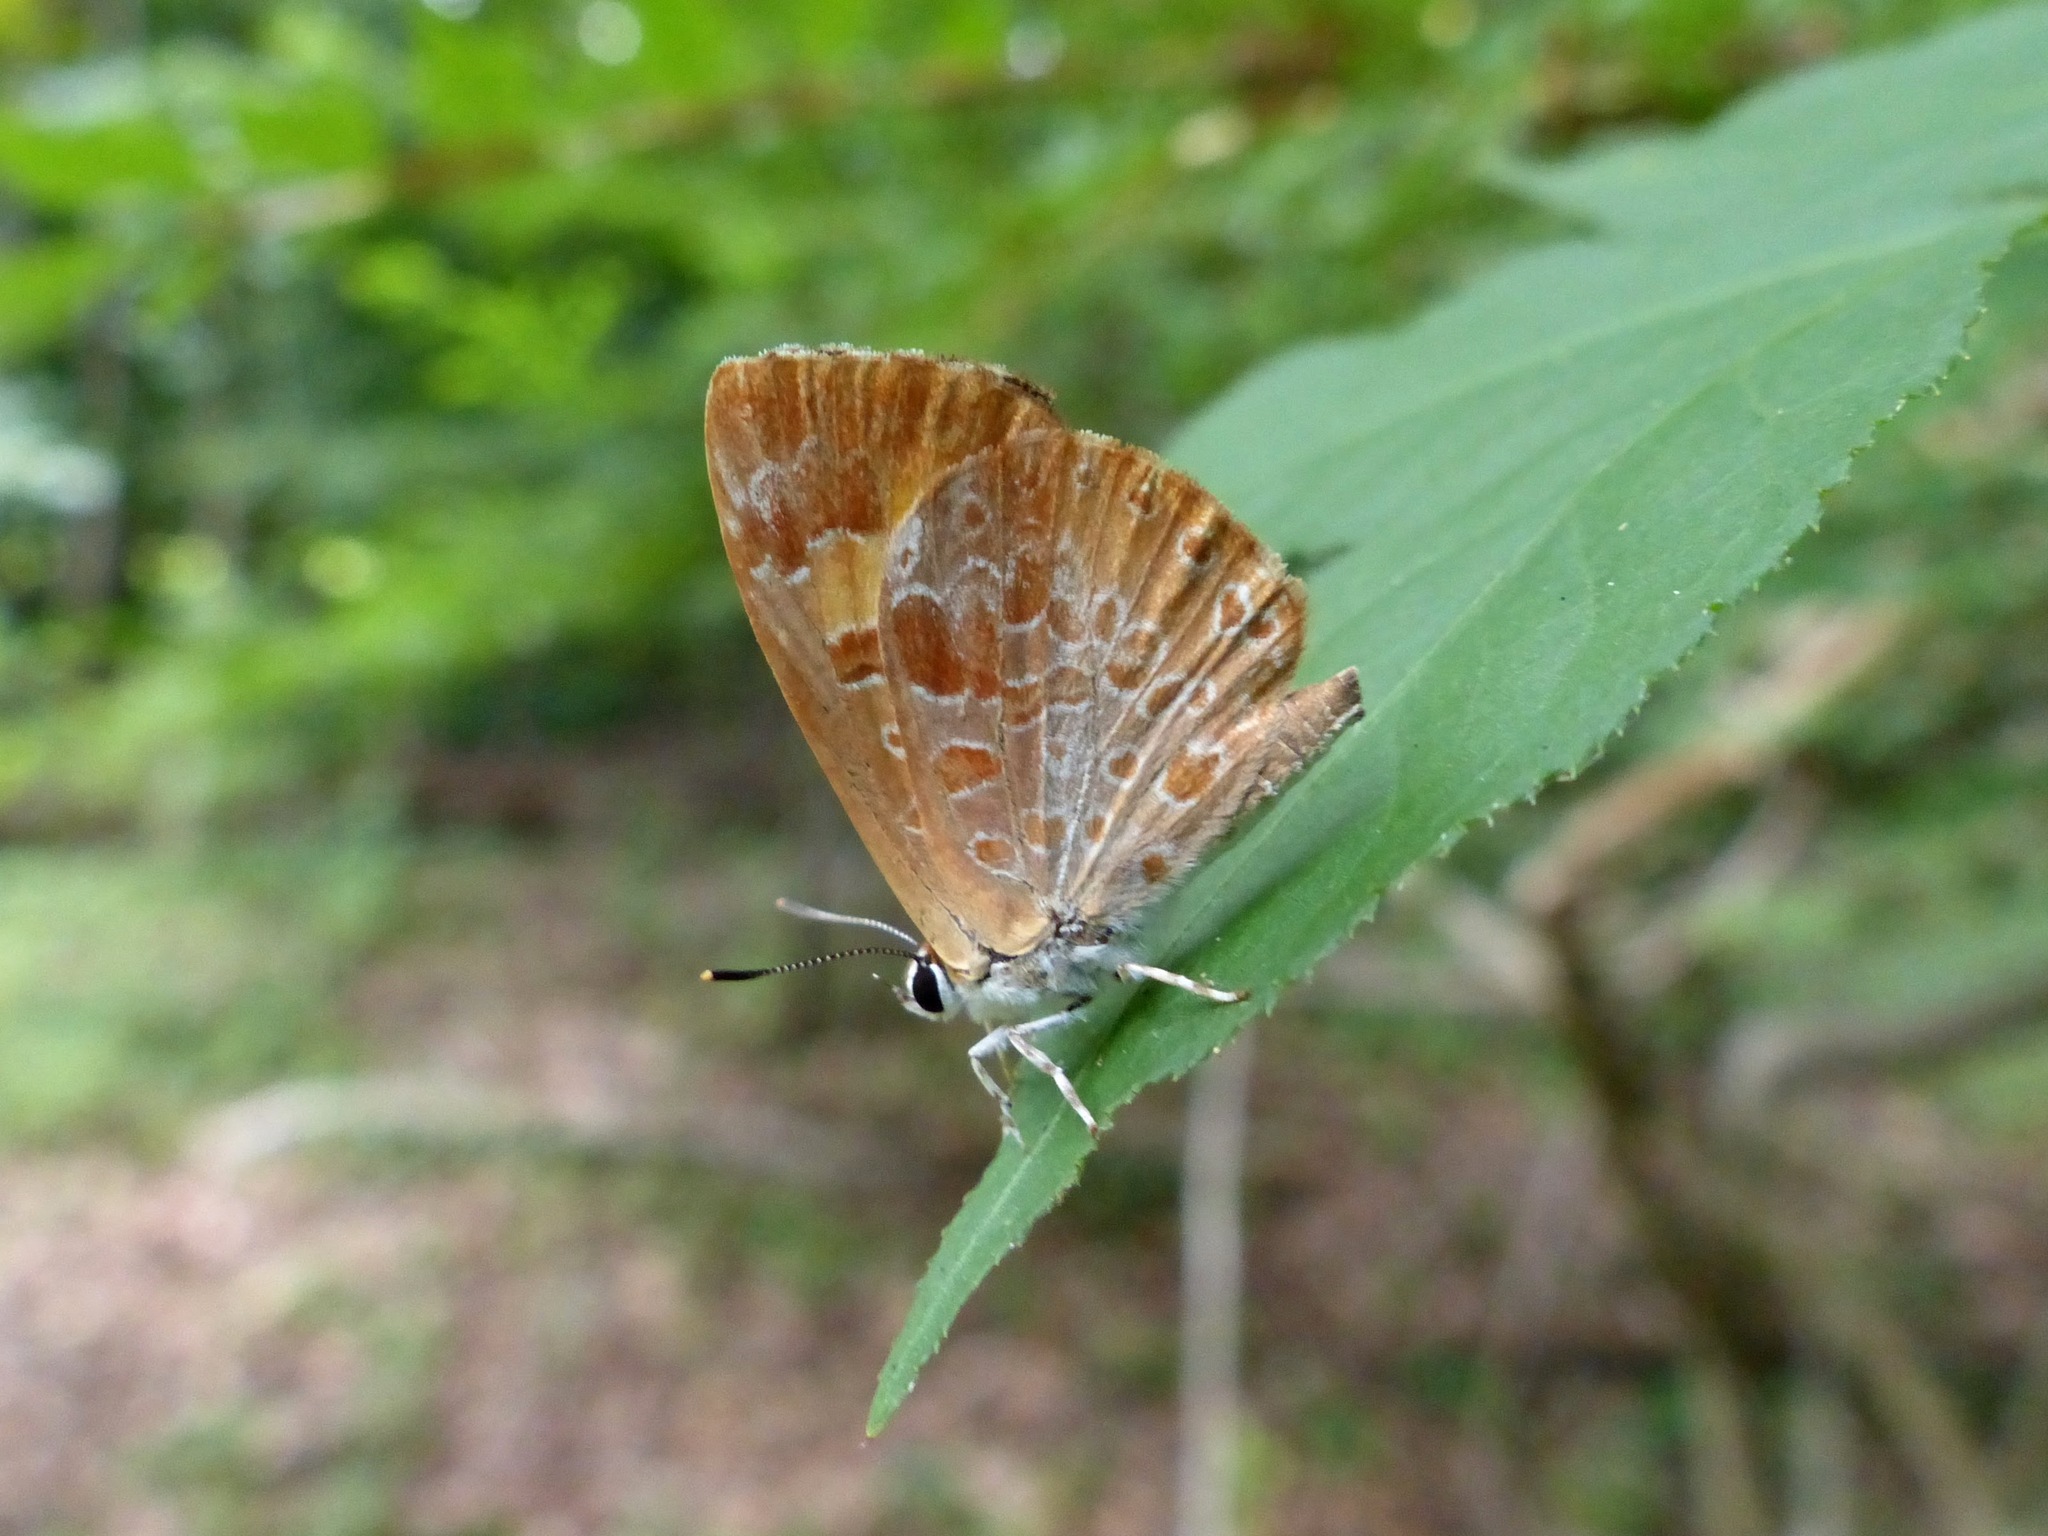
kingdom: Animalia
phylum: Arthropoda
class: Insecta
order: Lepidoptera
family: Lycaenidae
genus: Feniseca
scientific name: Feniseca tarquinius
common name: Harvester
